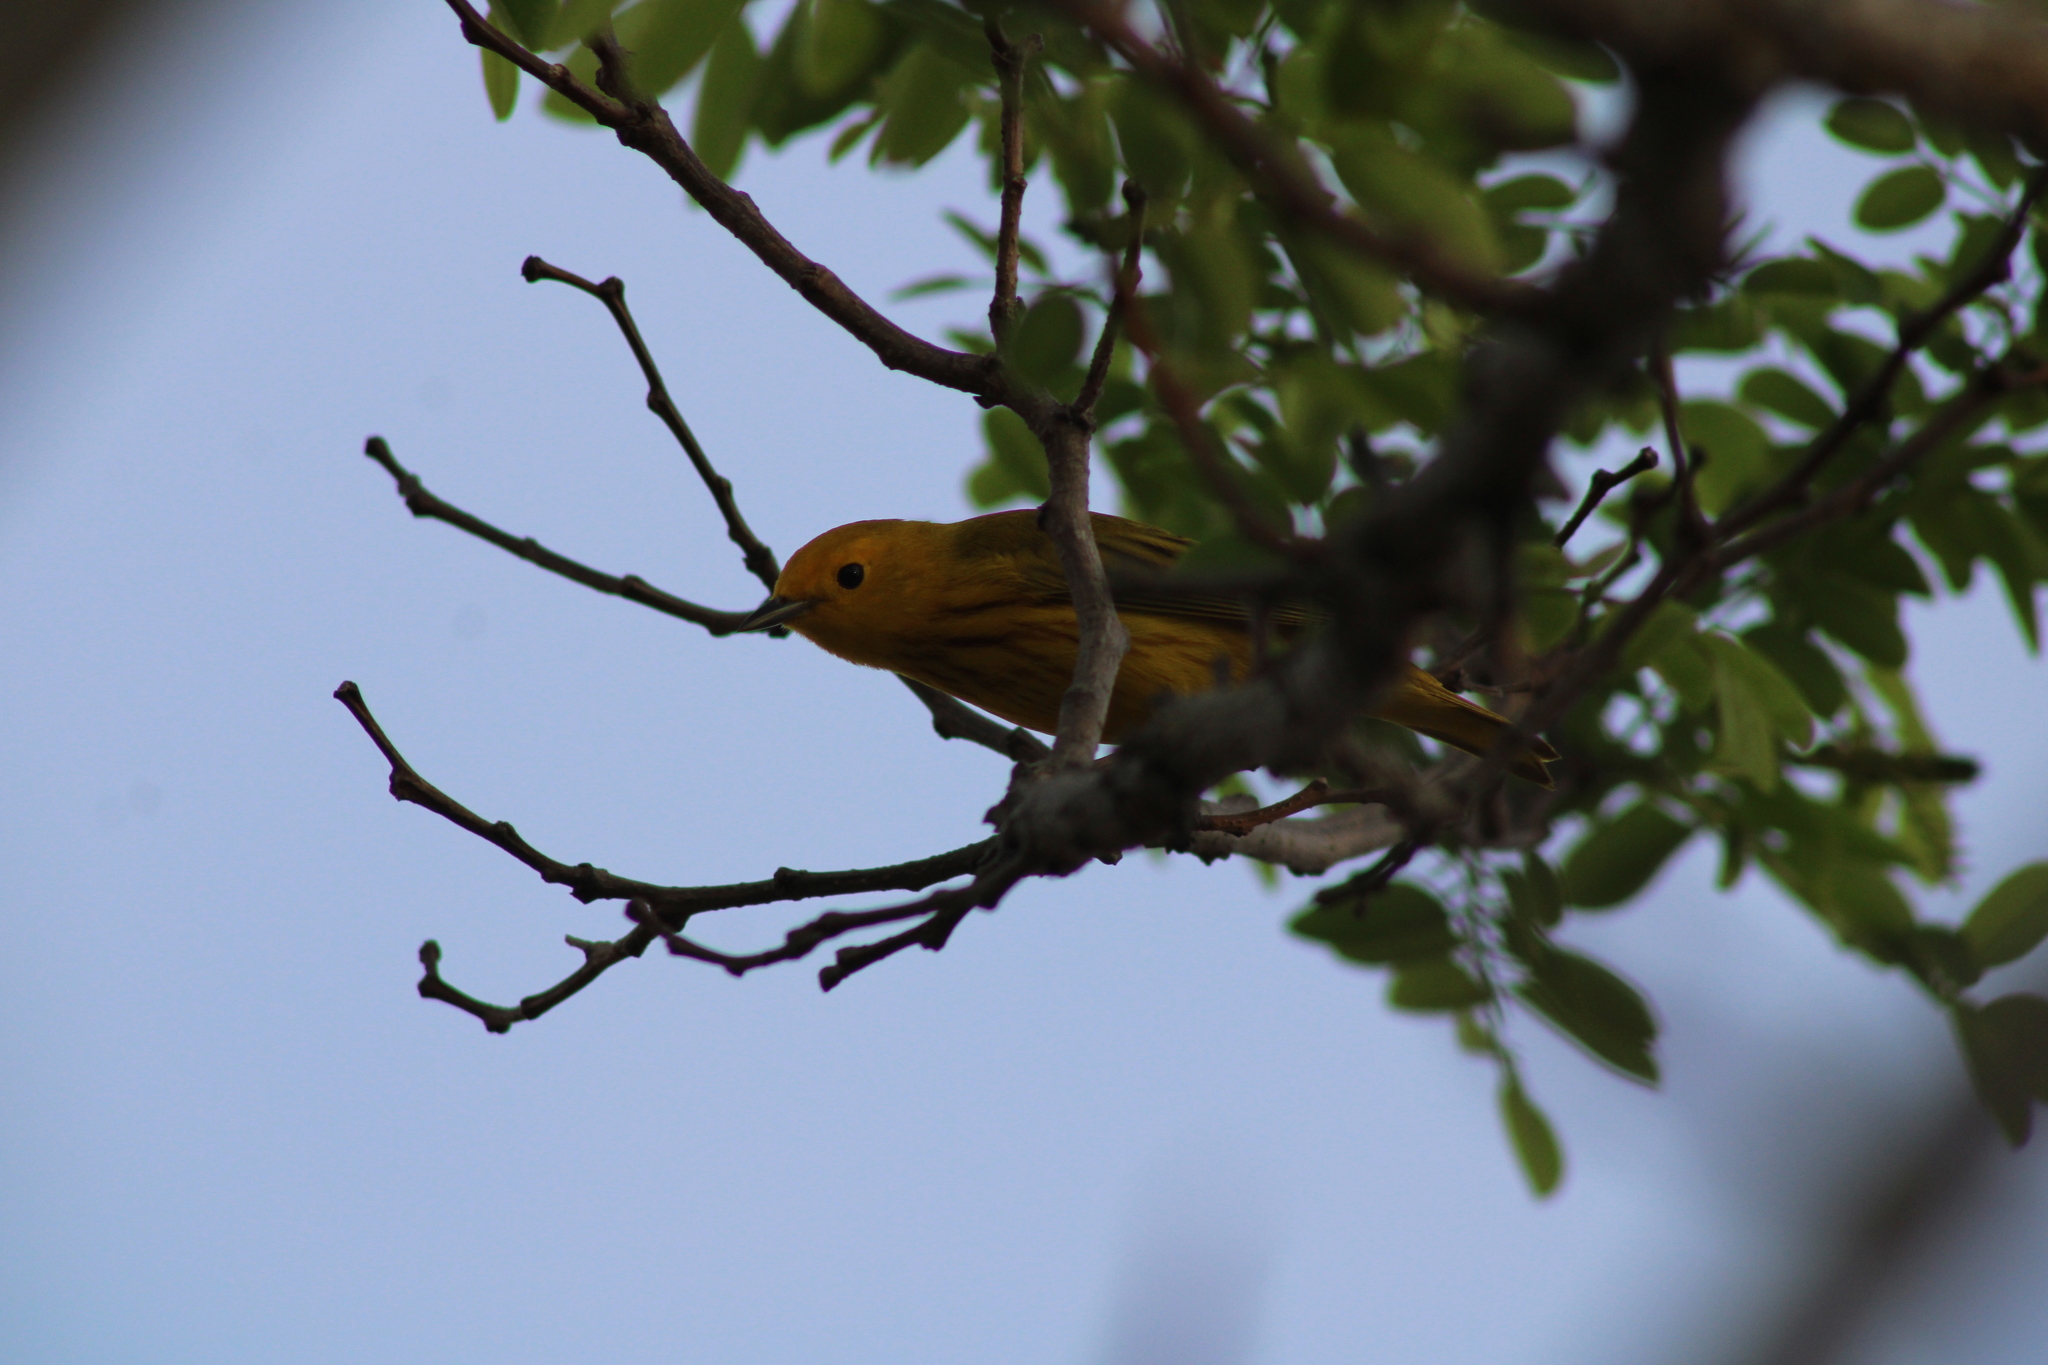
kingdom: Animalia
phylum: Chordata
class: Aves
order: Passeriformes
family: Parulidae
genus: Setophaga
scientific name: Setophaga petechia
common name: Yellow warbler
